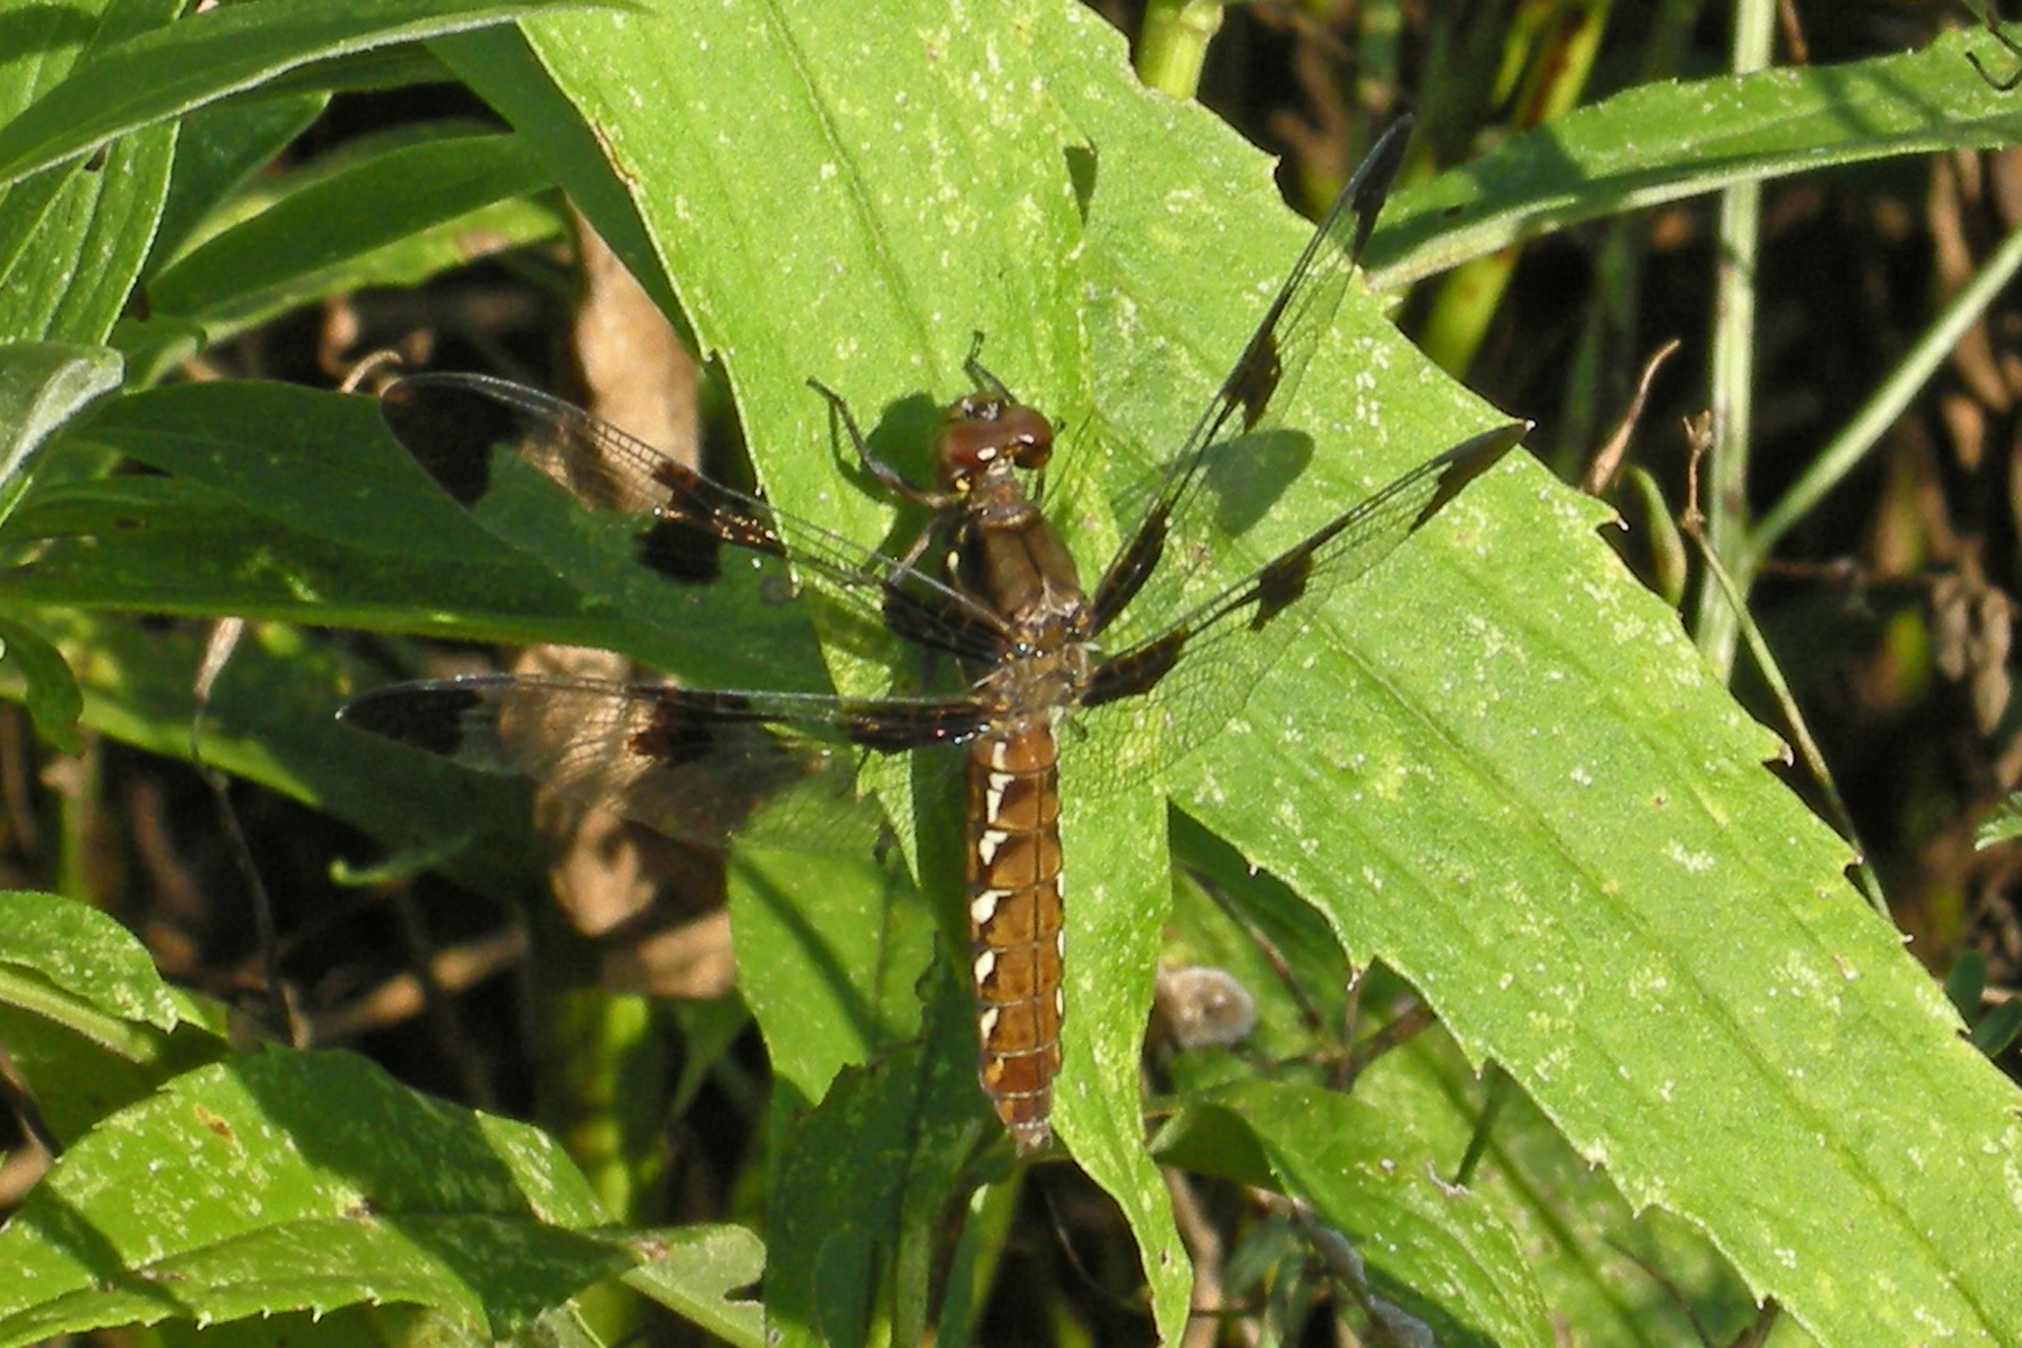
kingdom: Animalia
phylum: Arthropoda
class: Insecta
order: Odonata
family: Libellulidae
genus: Plathemis
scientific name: Plathemis lydia
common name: Common whitetail
